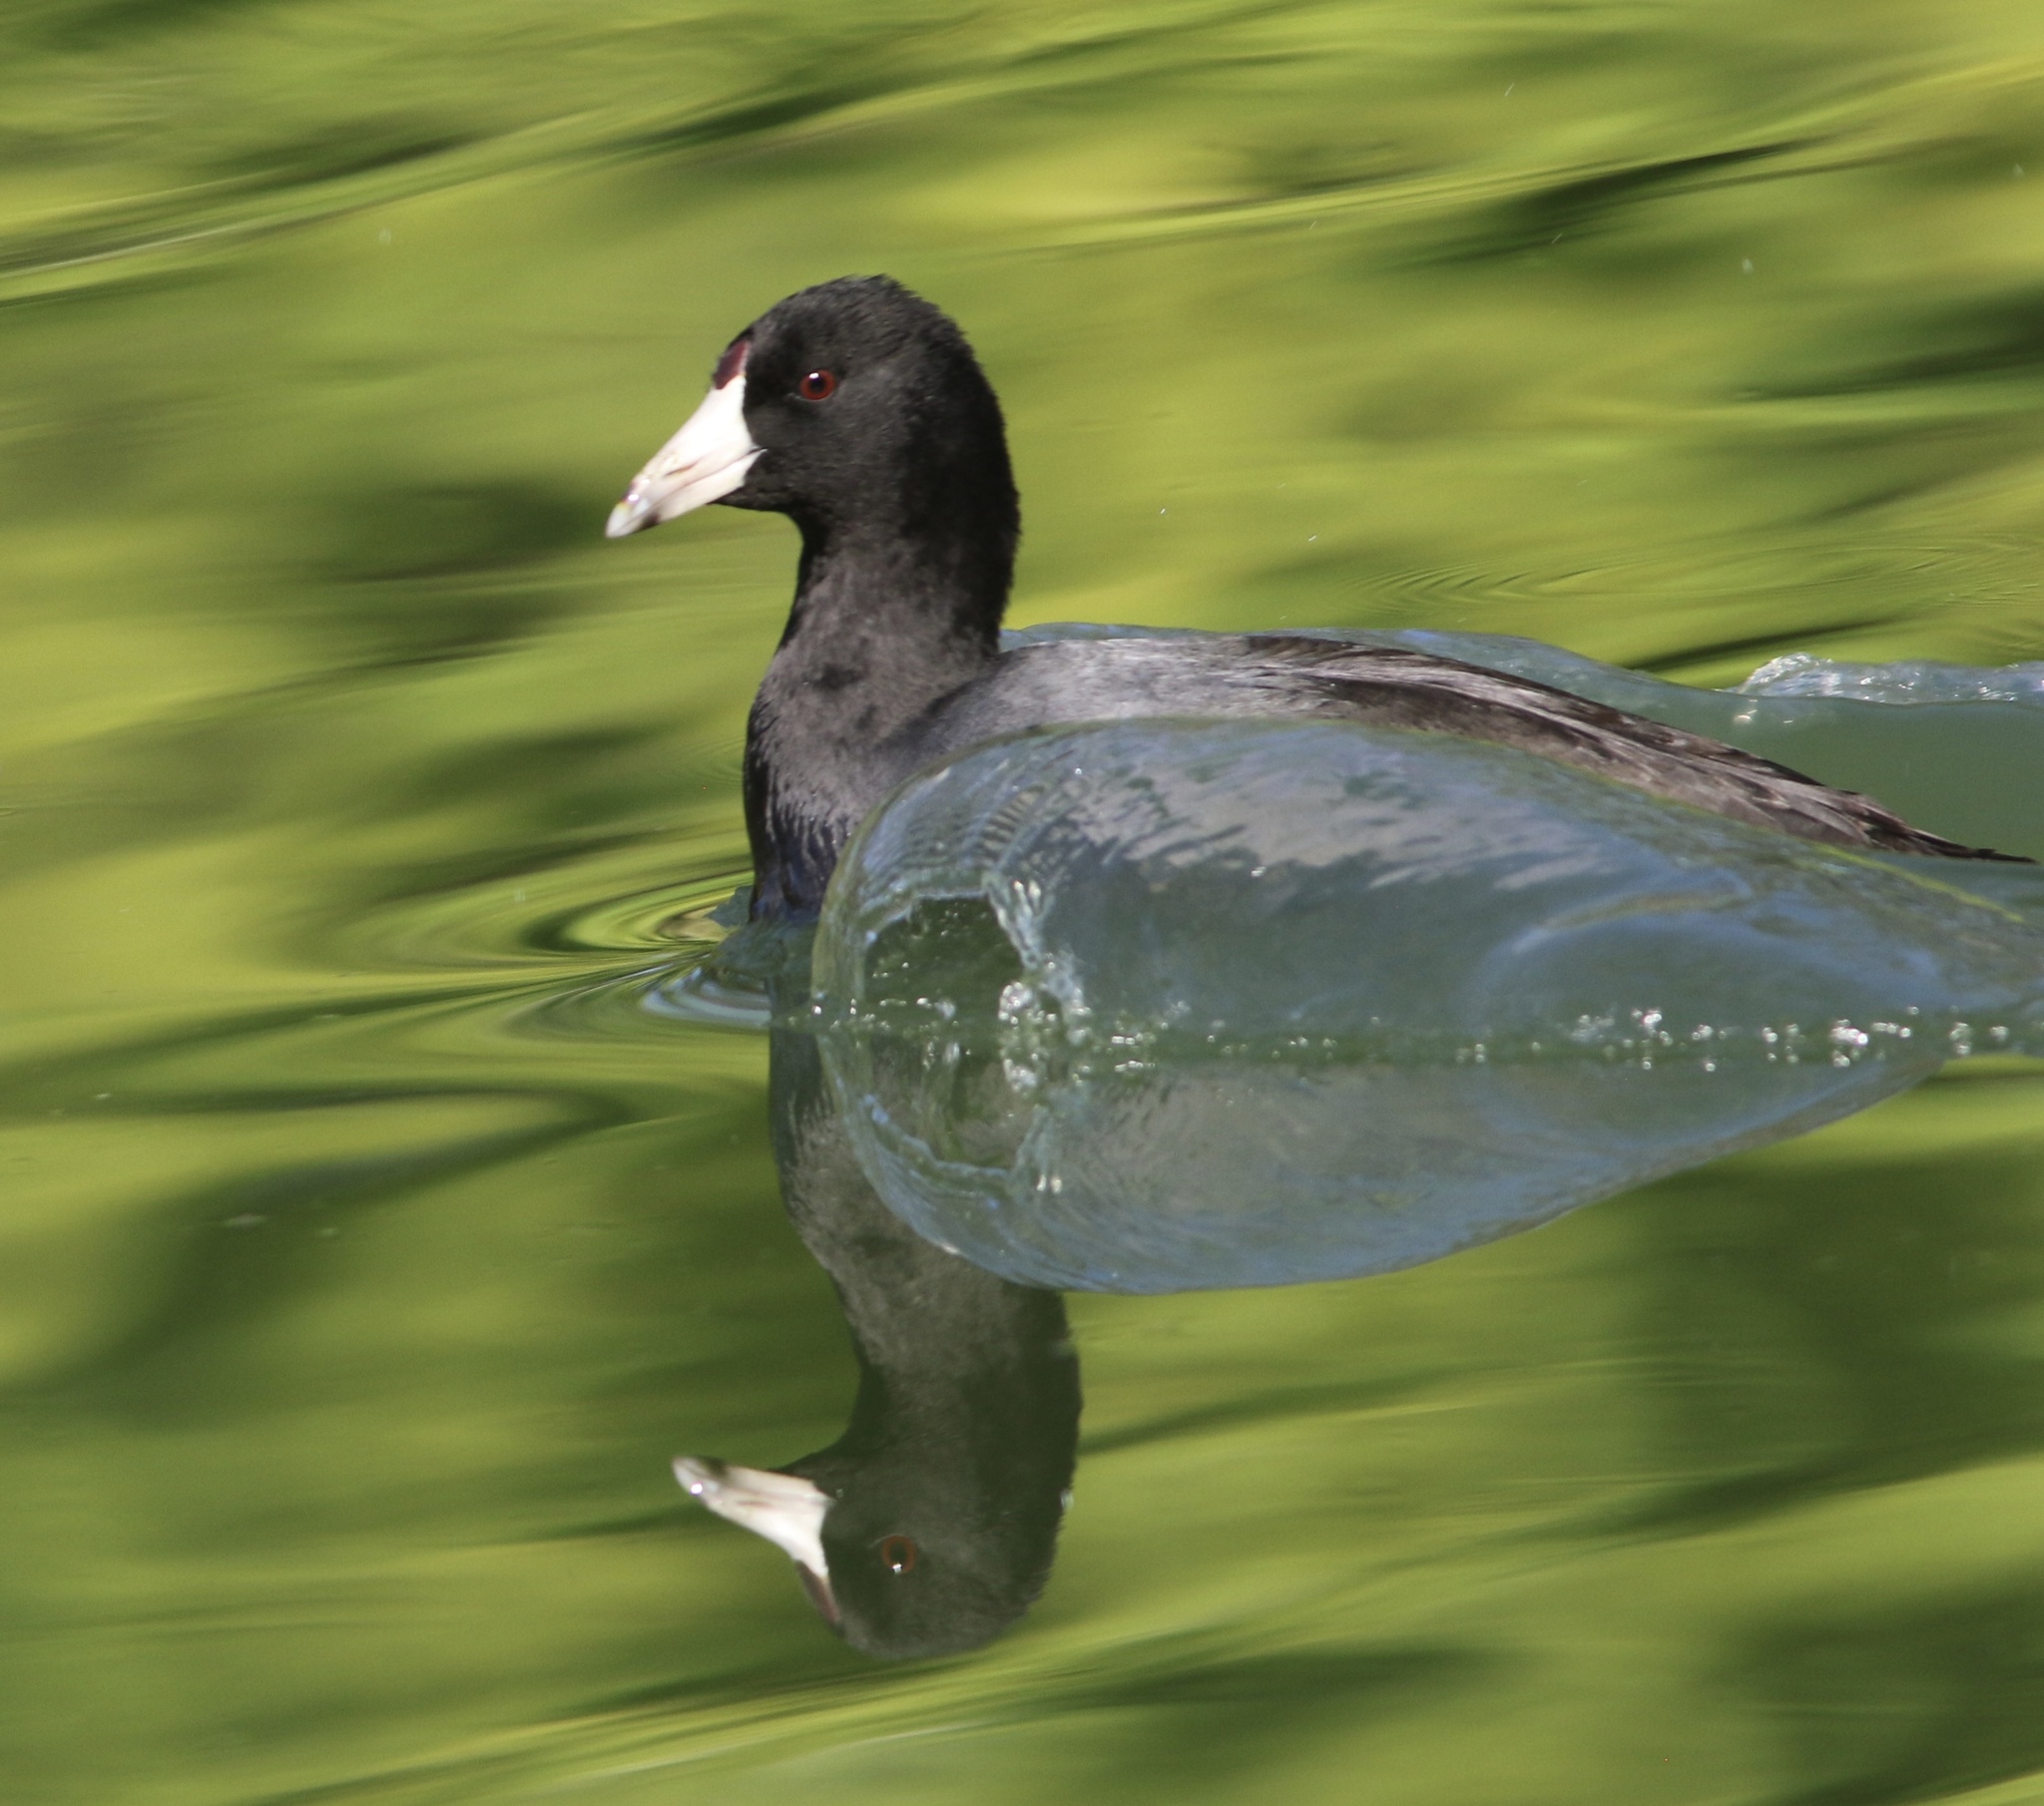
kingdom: Animalia
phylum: Chordata
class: Aves
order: Gruiformes
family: Rallidae
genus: Fulica
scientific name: Fulica americana
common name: American coot
